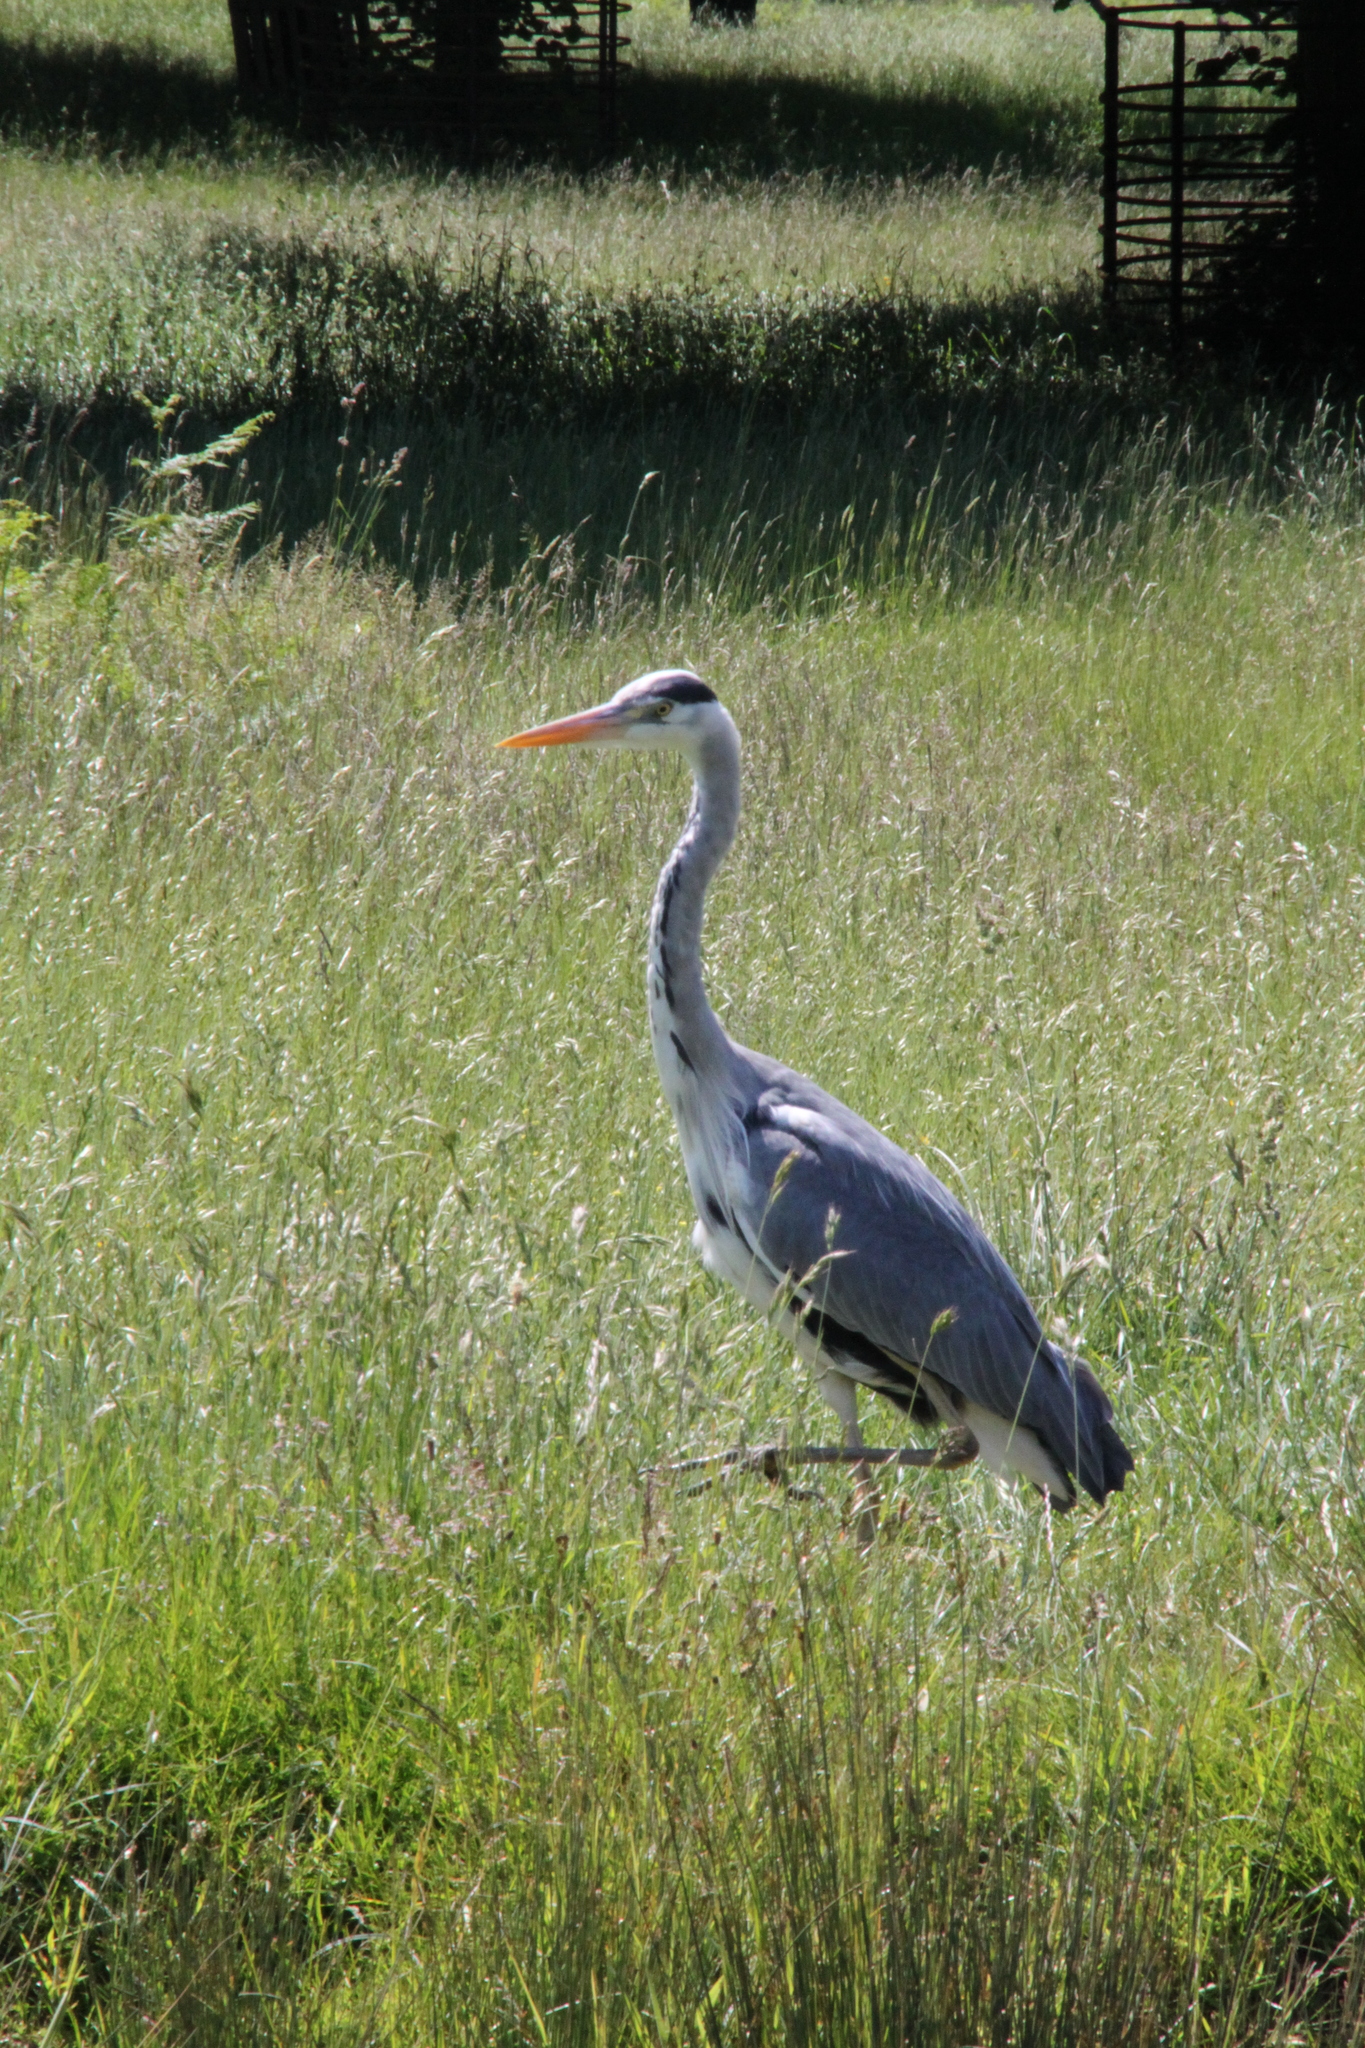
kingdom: Animalia
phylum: Chordata
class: Aves
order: Pelecaniformes
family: Ardeidae
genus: Ardea
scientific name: Ardea cinerea
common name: Grey heron
